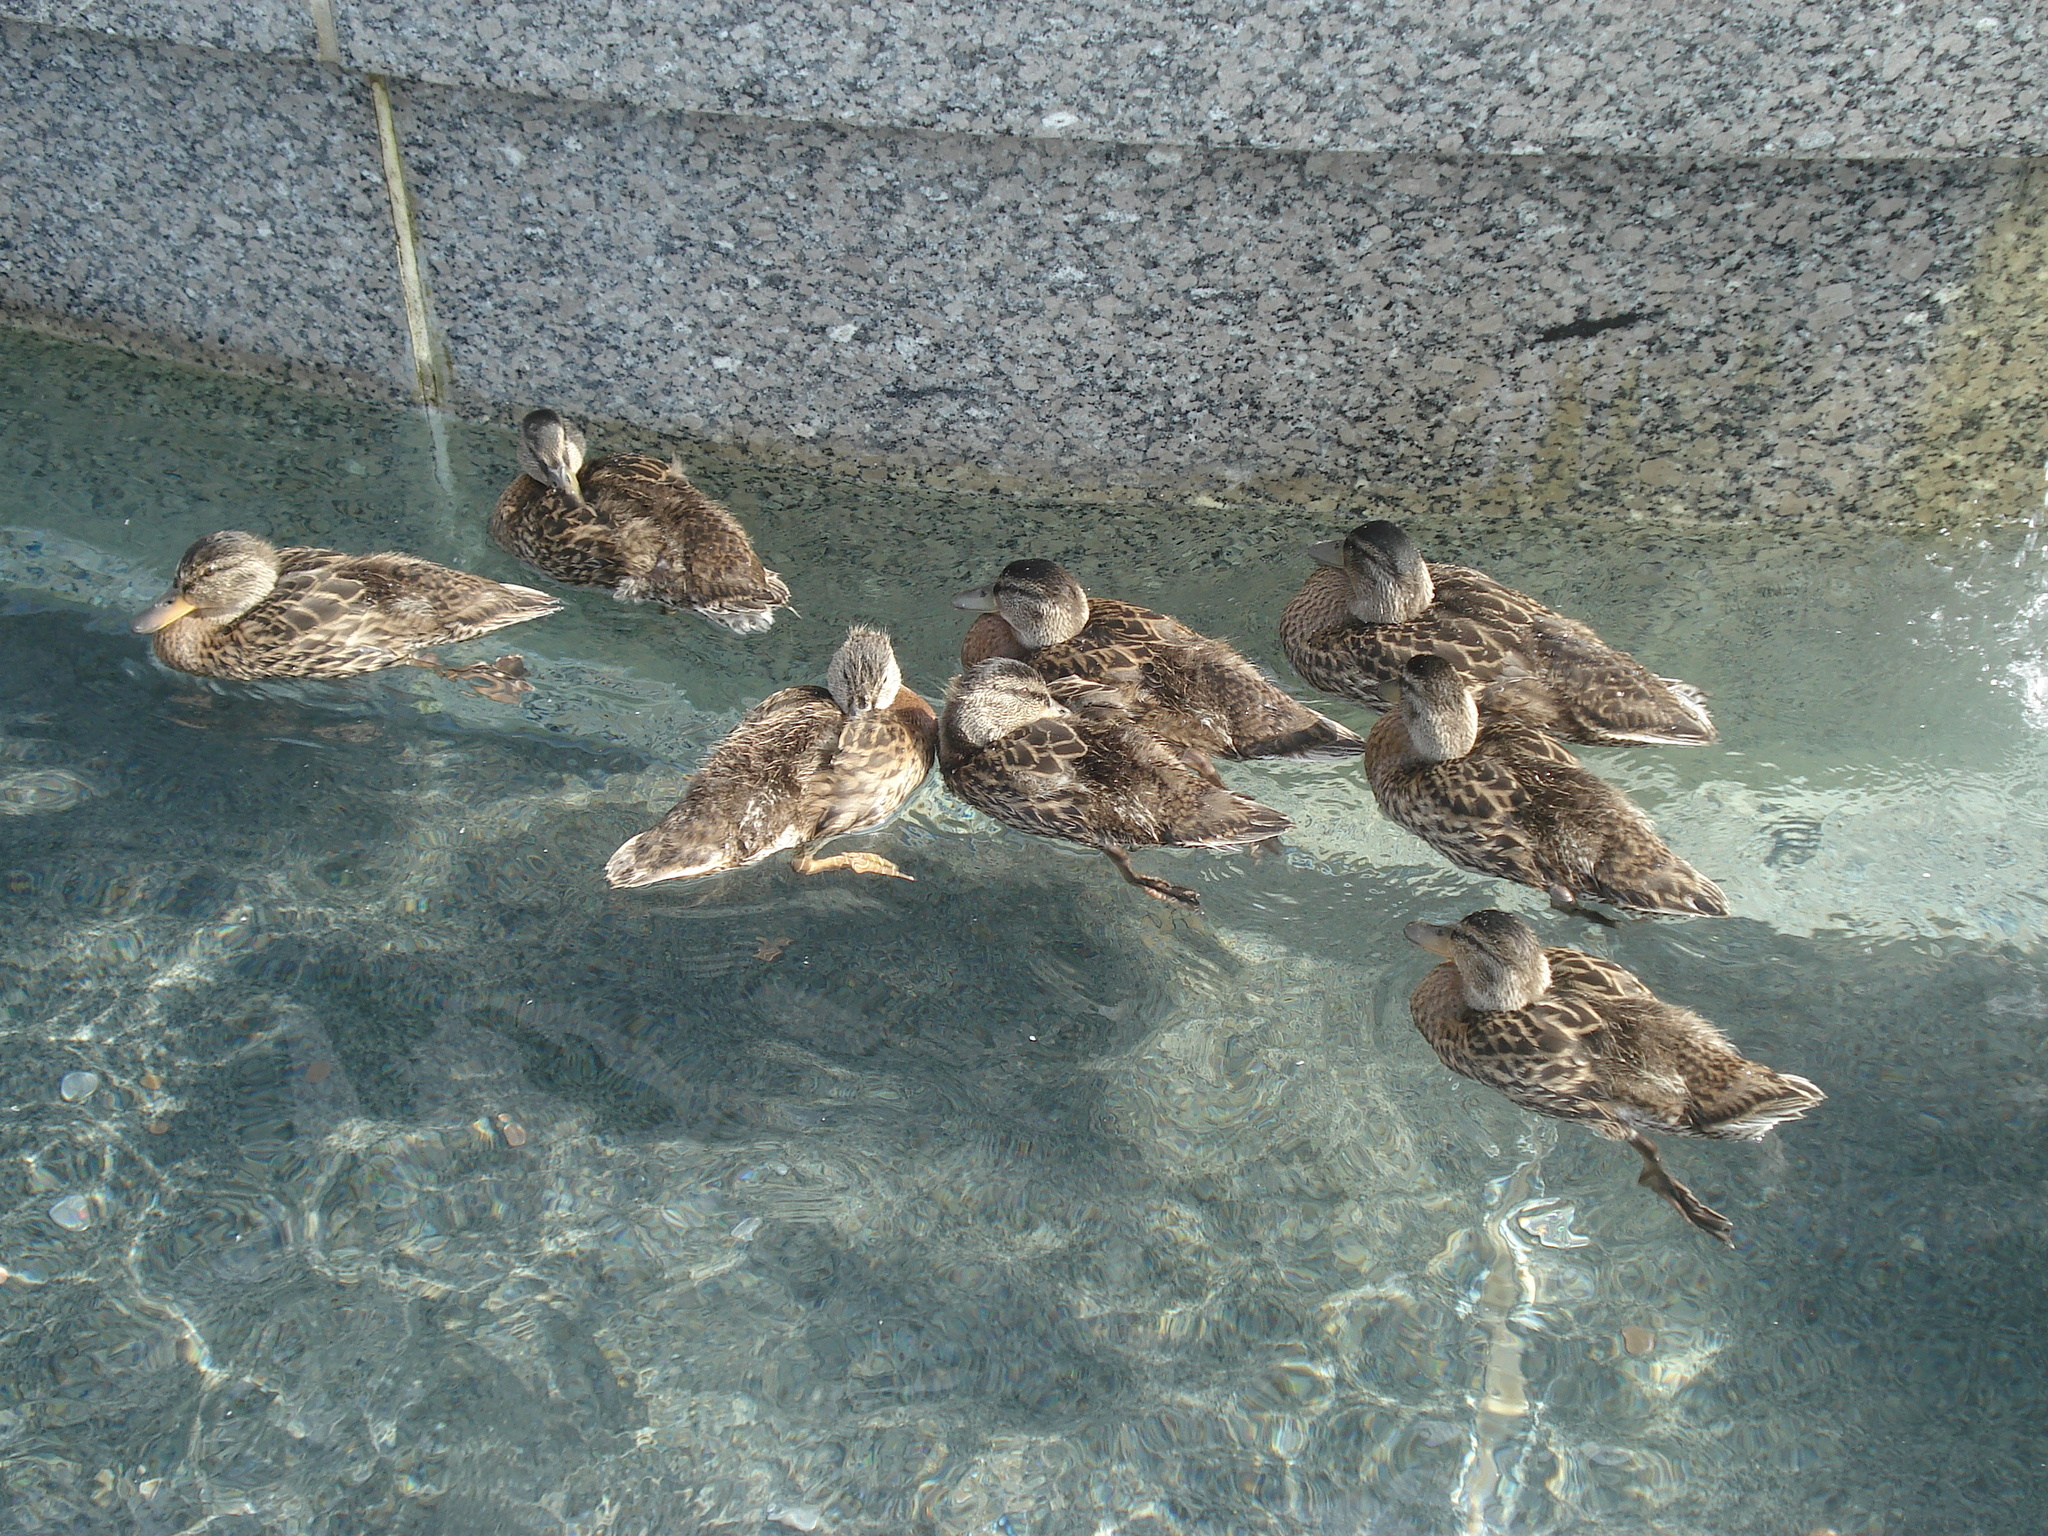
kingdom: Animalia
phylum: Chordata
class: Aves
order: Anseriformes
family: Anatidae
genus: Anas
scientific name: Anas platyrhynchos
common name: Mallard
